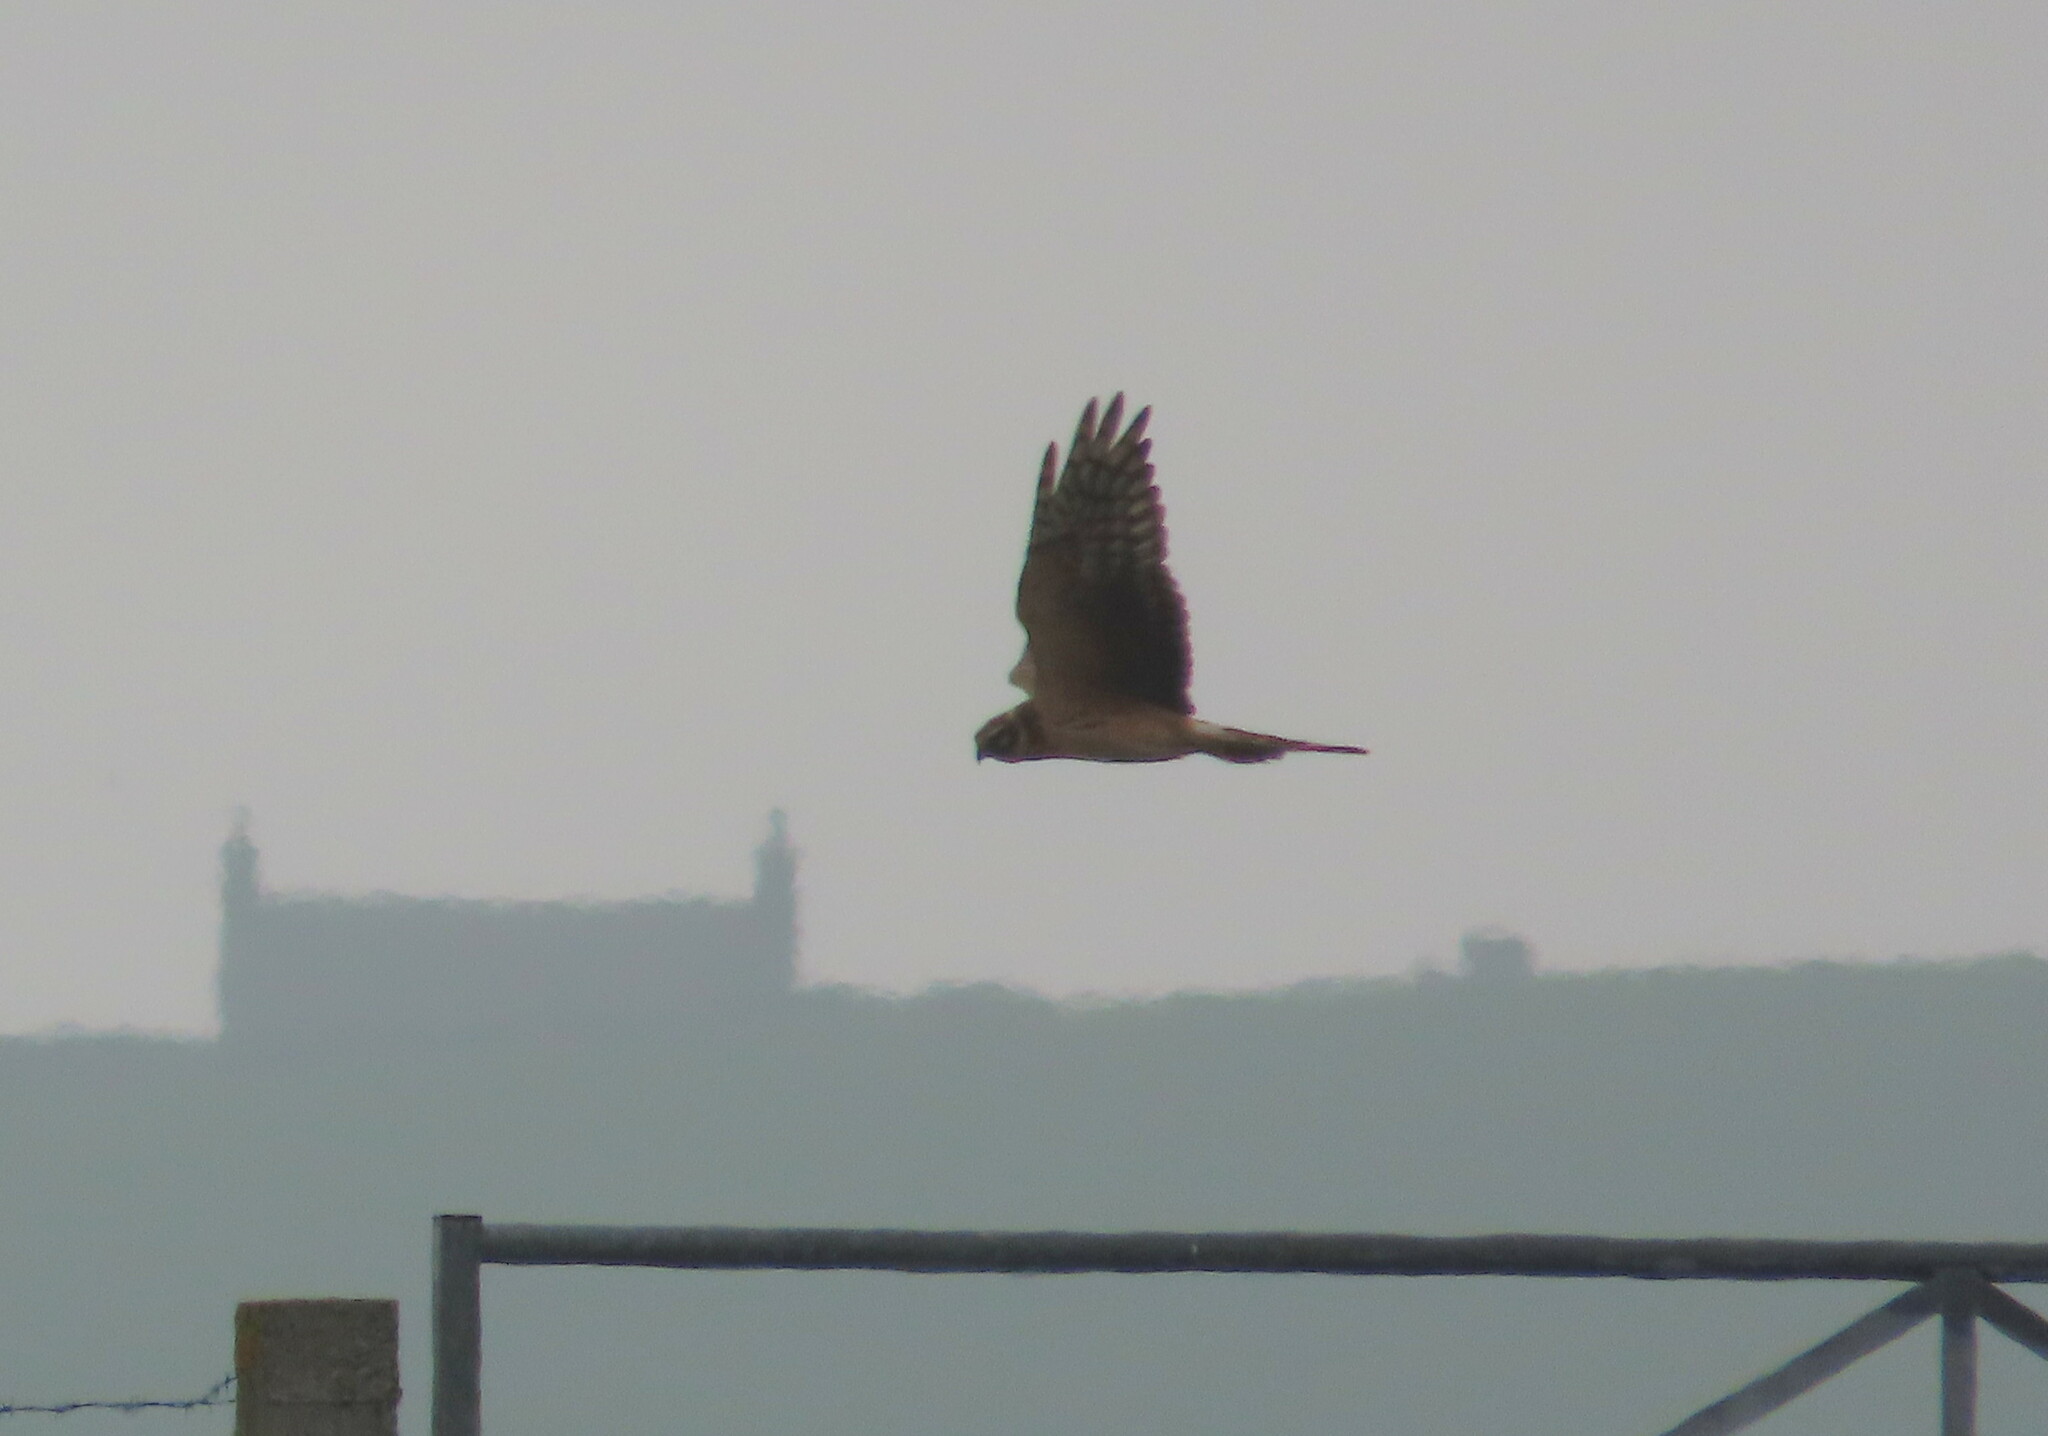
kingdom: Animalia
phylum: Chordata
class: Aves
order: Accipitriformes
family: Accipitridae
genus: Circus
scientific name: Circus macrourus
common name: Pallid harrier
